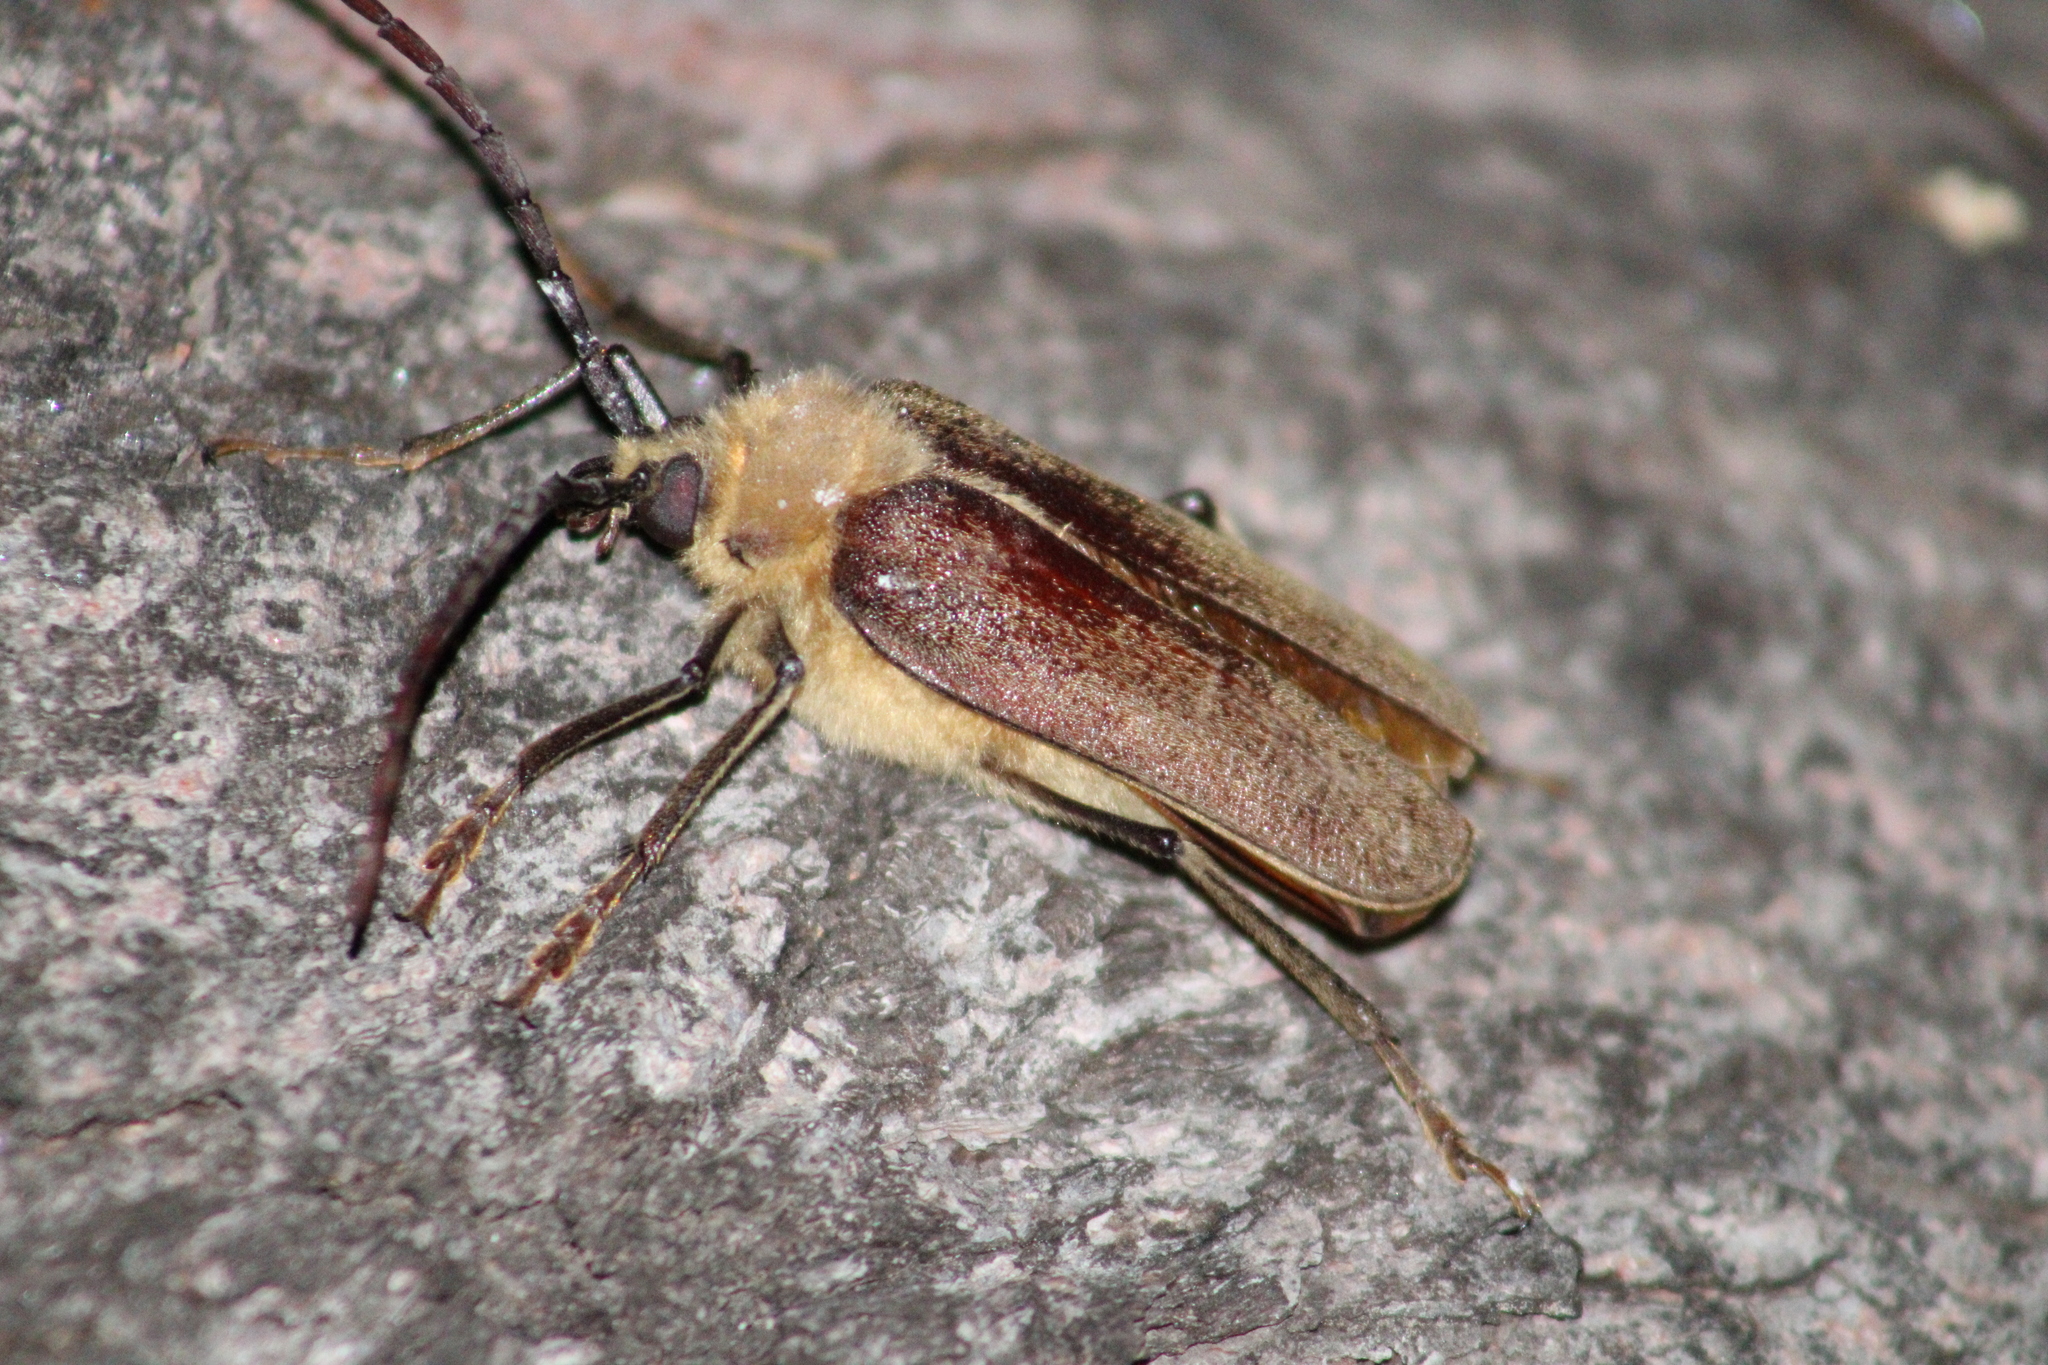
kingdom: Animalia
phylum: Arthropoda
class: Insecta
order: Coleoptera
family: Cerambycidae
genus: Acanthinodera
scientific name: Acanthinodera cumingii
